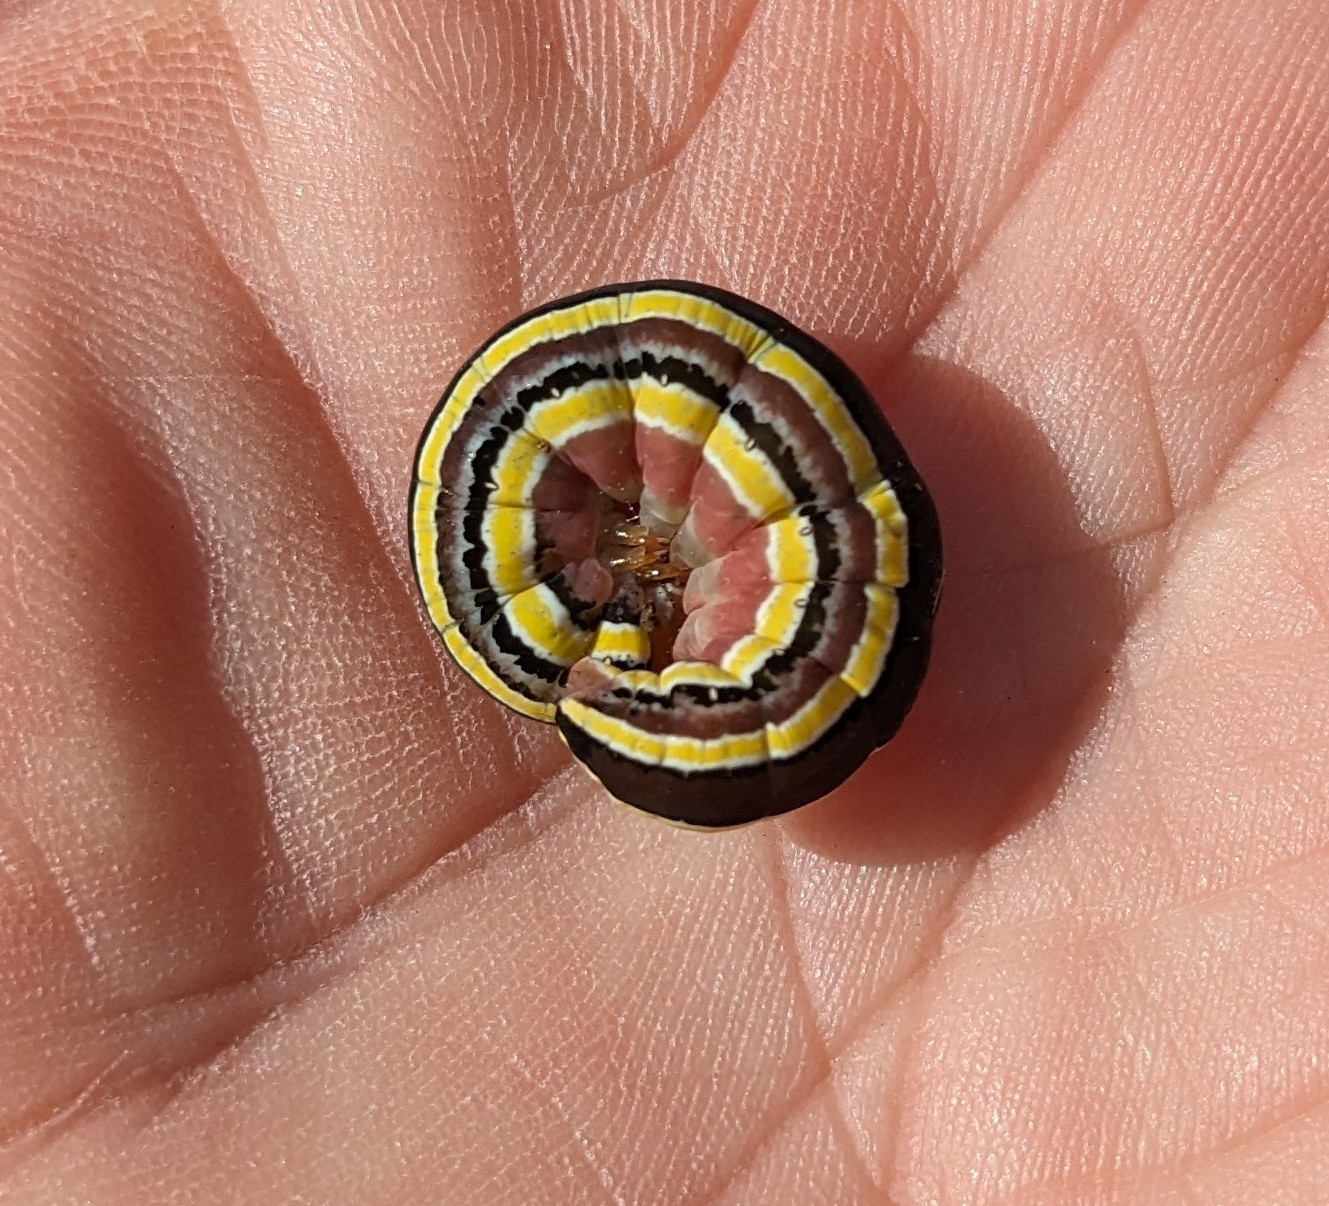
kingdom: Animalia
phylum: Arthropoda
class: Insecta
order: Lepidoptera
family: Noctuidae
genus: Trichordestra
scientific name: Trichordestra legitima
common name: Striped garden caterpillar
